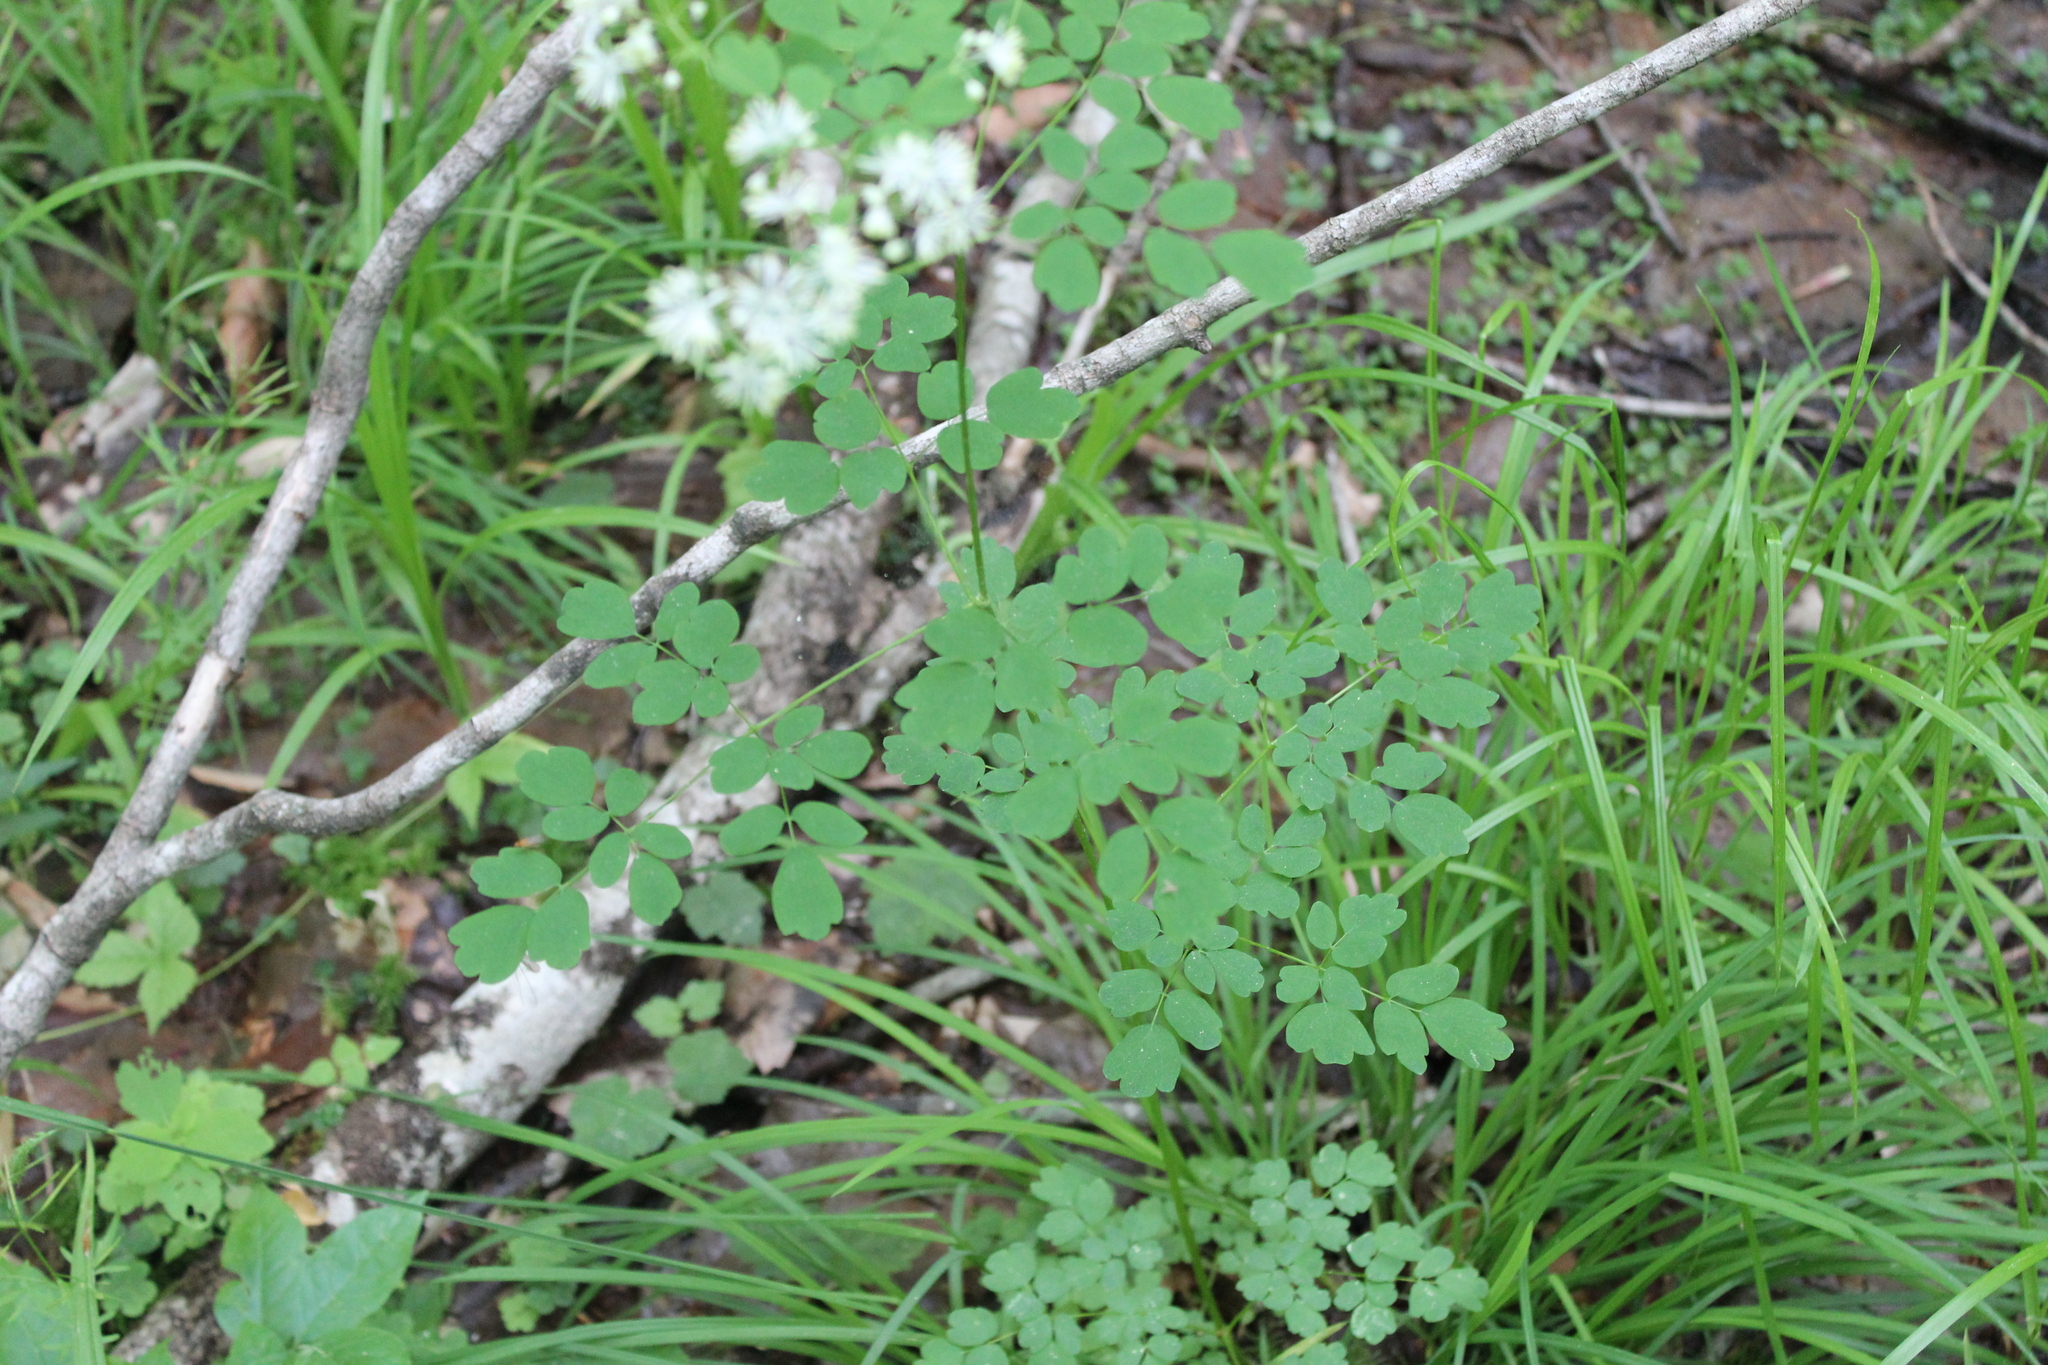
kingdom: Plantae
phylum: Tracheophyta
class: Magnoliopsida
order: Ranunculales
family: Ranunculaceae
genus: Thalictrum
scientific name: Thalictrum pubescens
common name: King-of-the-meadow
